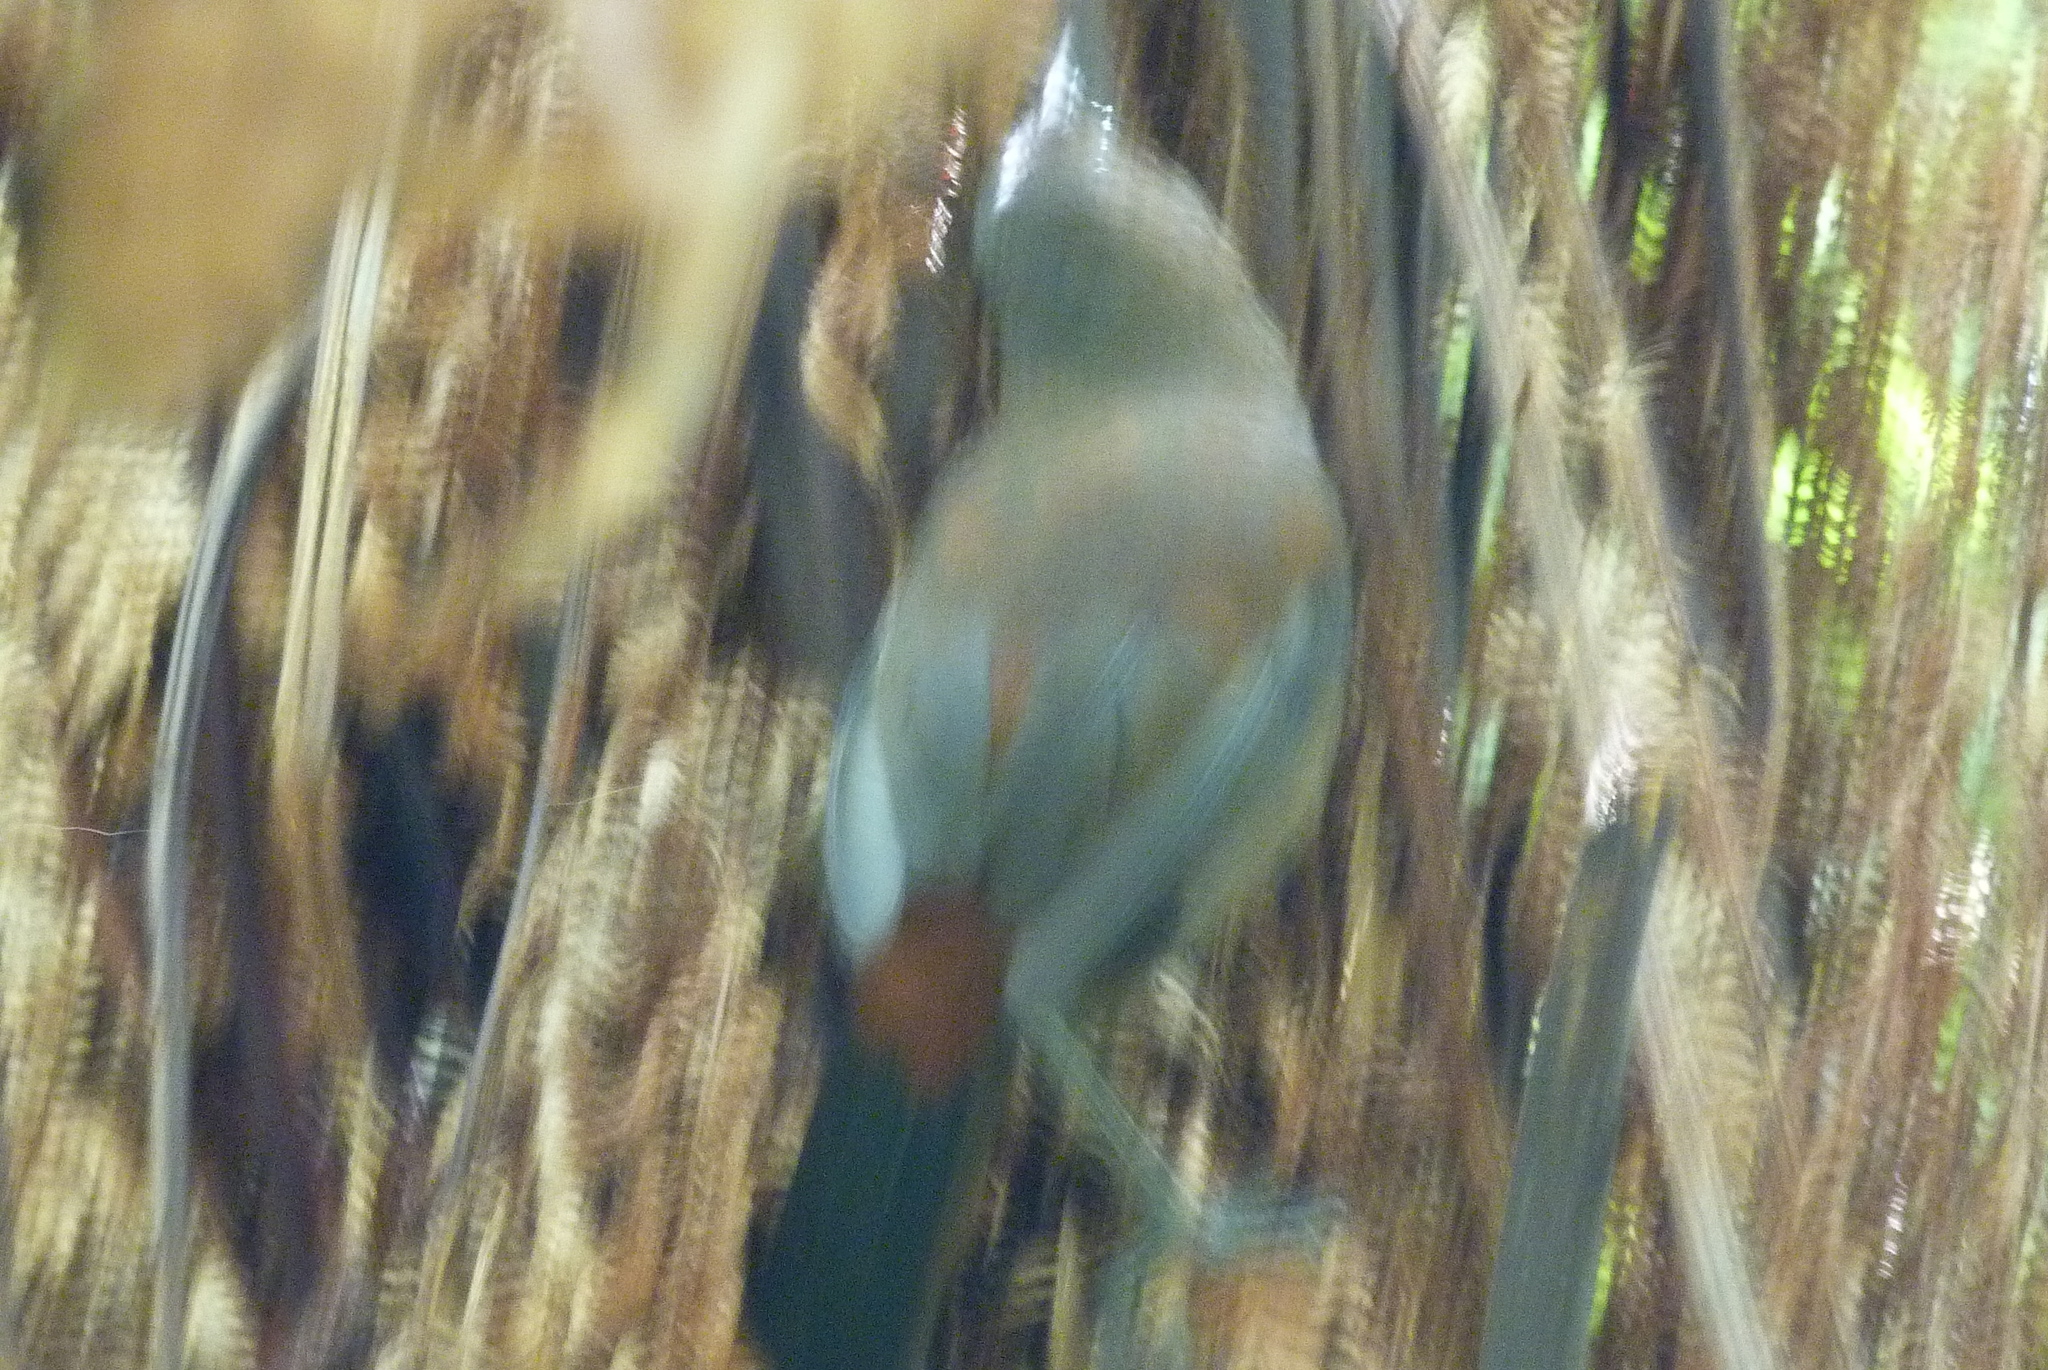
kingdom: Animalia
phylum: Chordata
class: Aves
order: Passeriformes
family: Callaeatidae
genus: Philesturnus
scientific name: Philesturnus carunculatus
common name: South island saddleback
